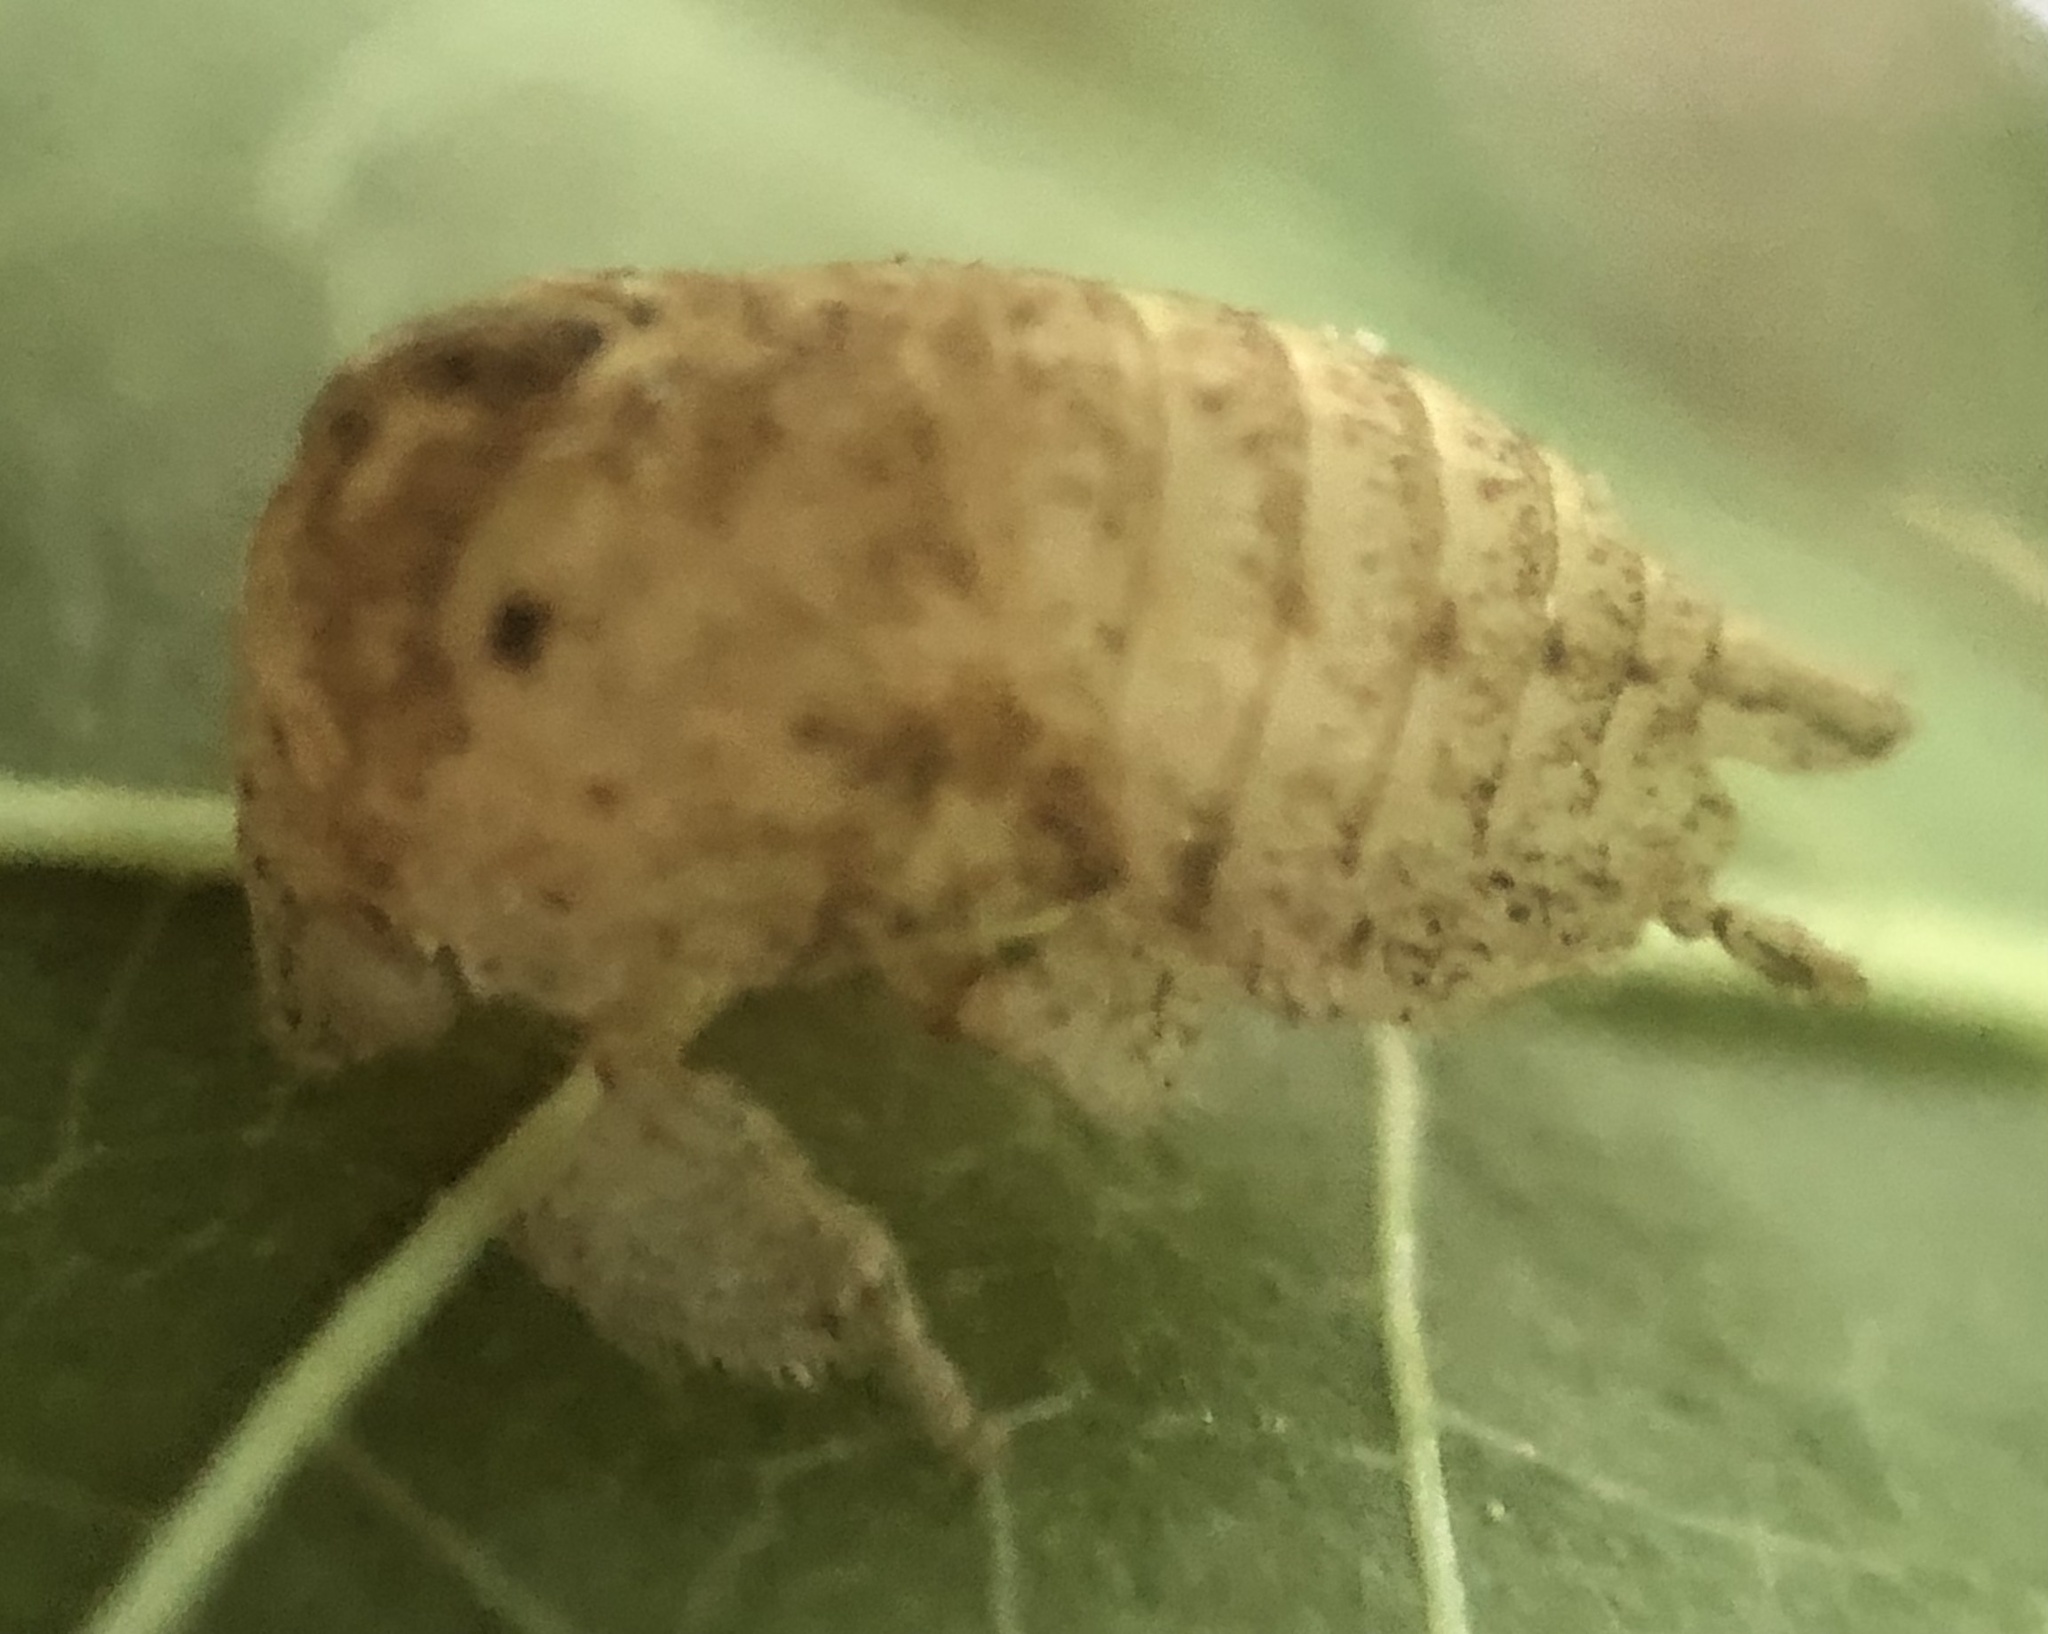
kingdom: Animalia
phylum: Arthropoda
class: Insecta
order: Hemiptera
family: Membracidae
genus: Hebetica
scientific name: Hebetica
